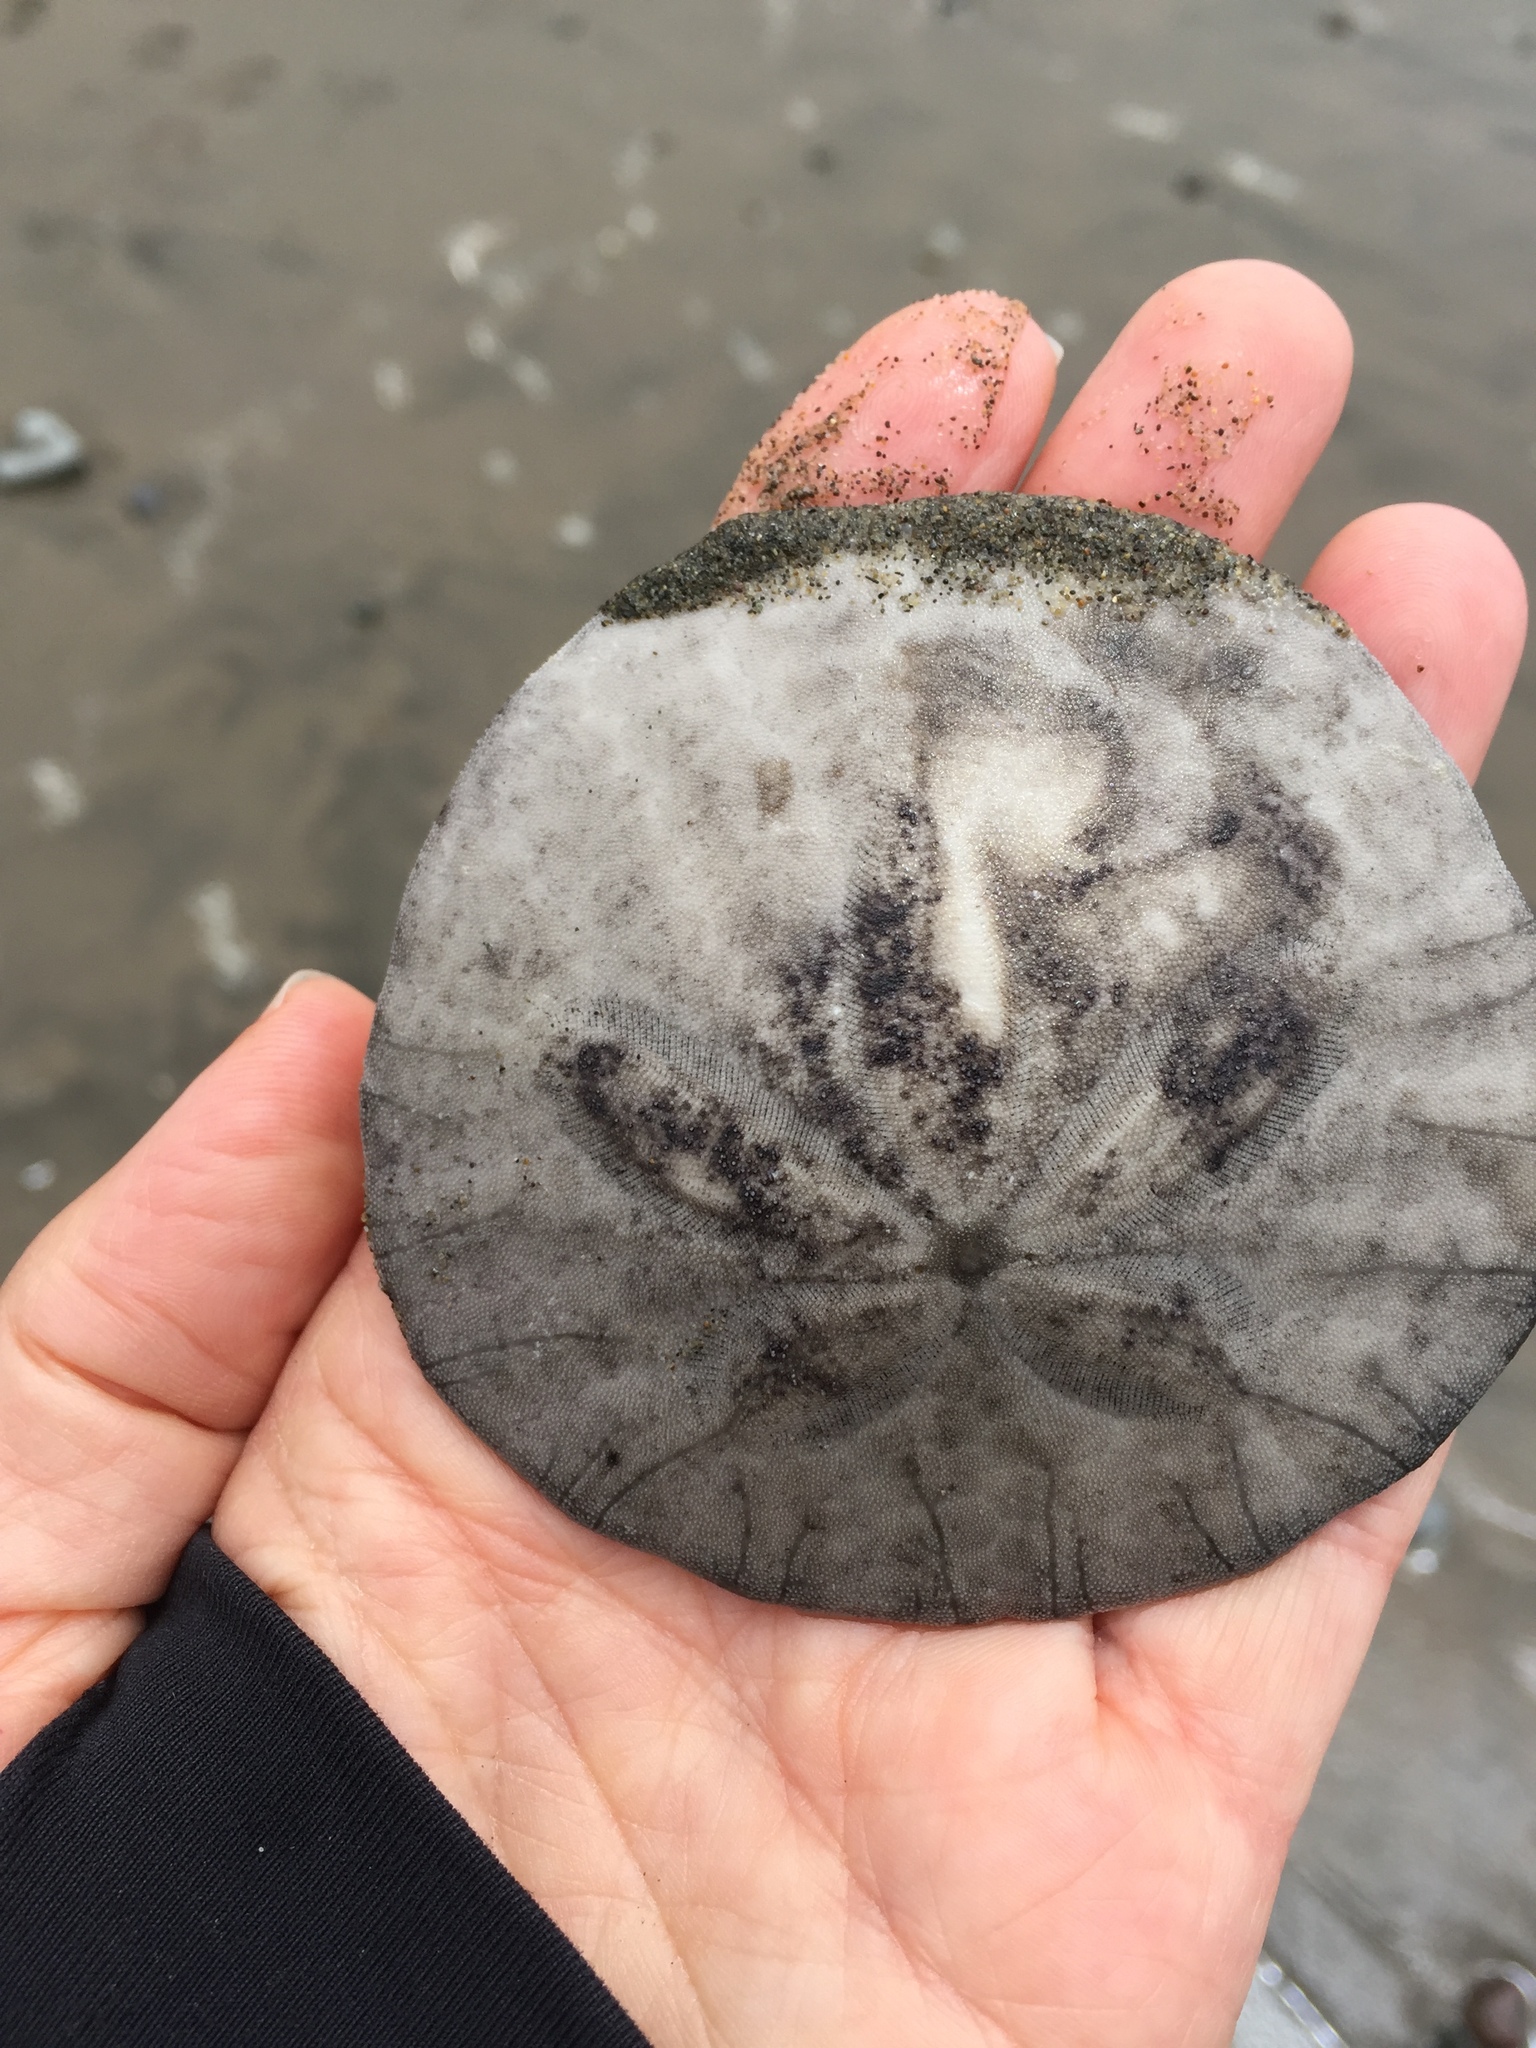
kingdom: Animalia
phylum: Echinodermata
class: Echinoidea
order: Echinolampadacea
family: Dendrasteridae
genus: Dendraster
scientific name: Dendraster excentricus
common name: Eccentric sand dollar sea urchin
